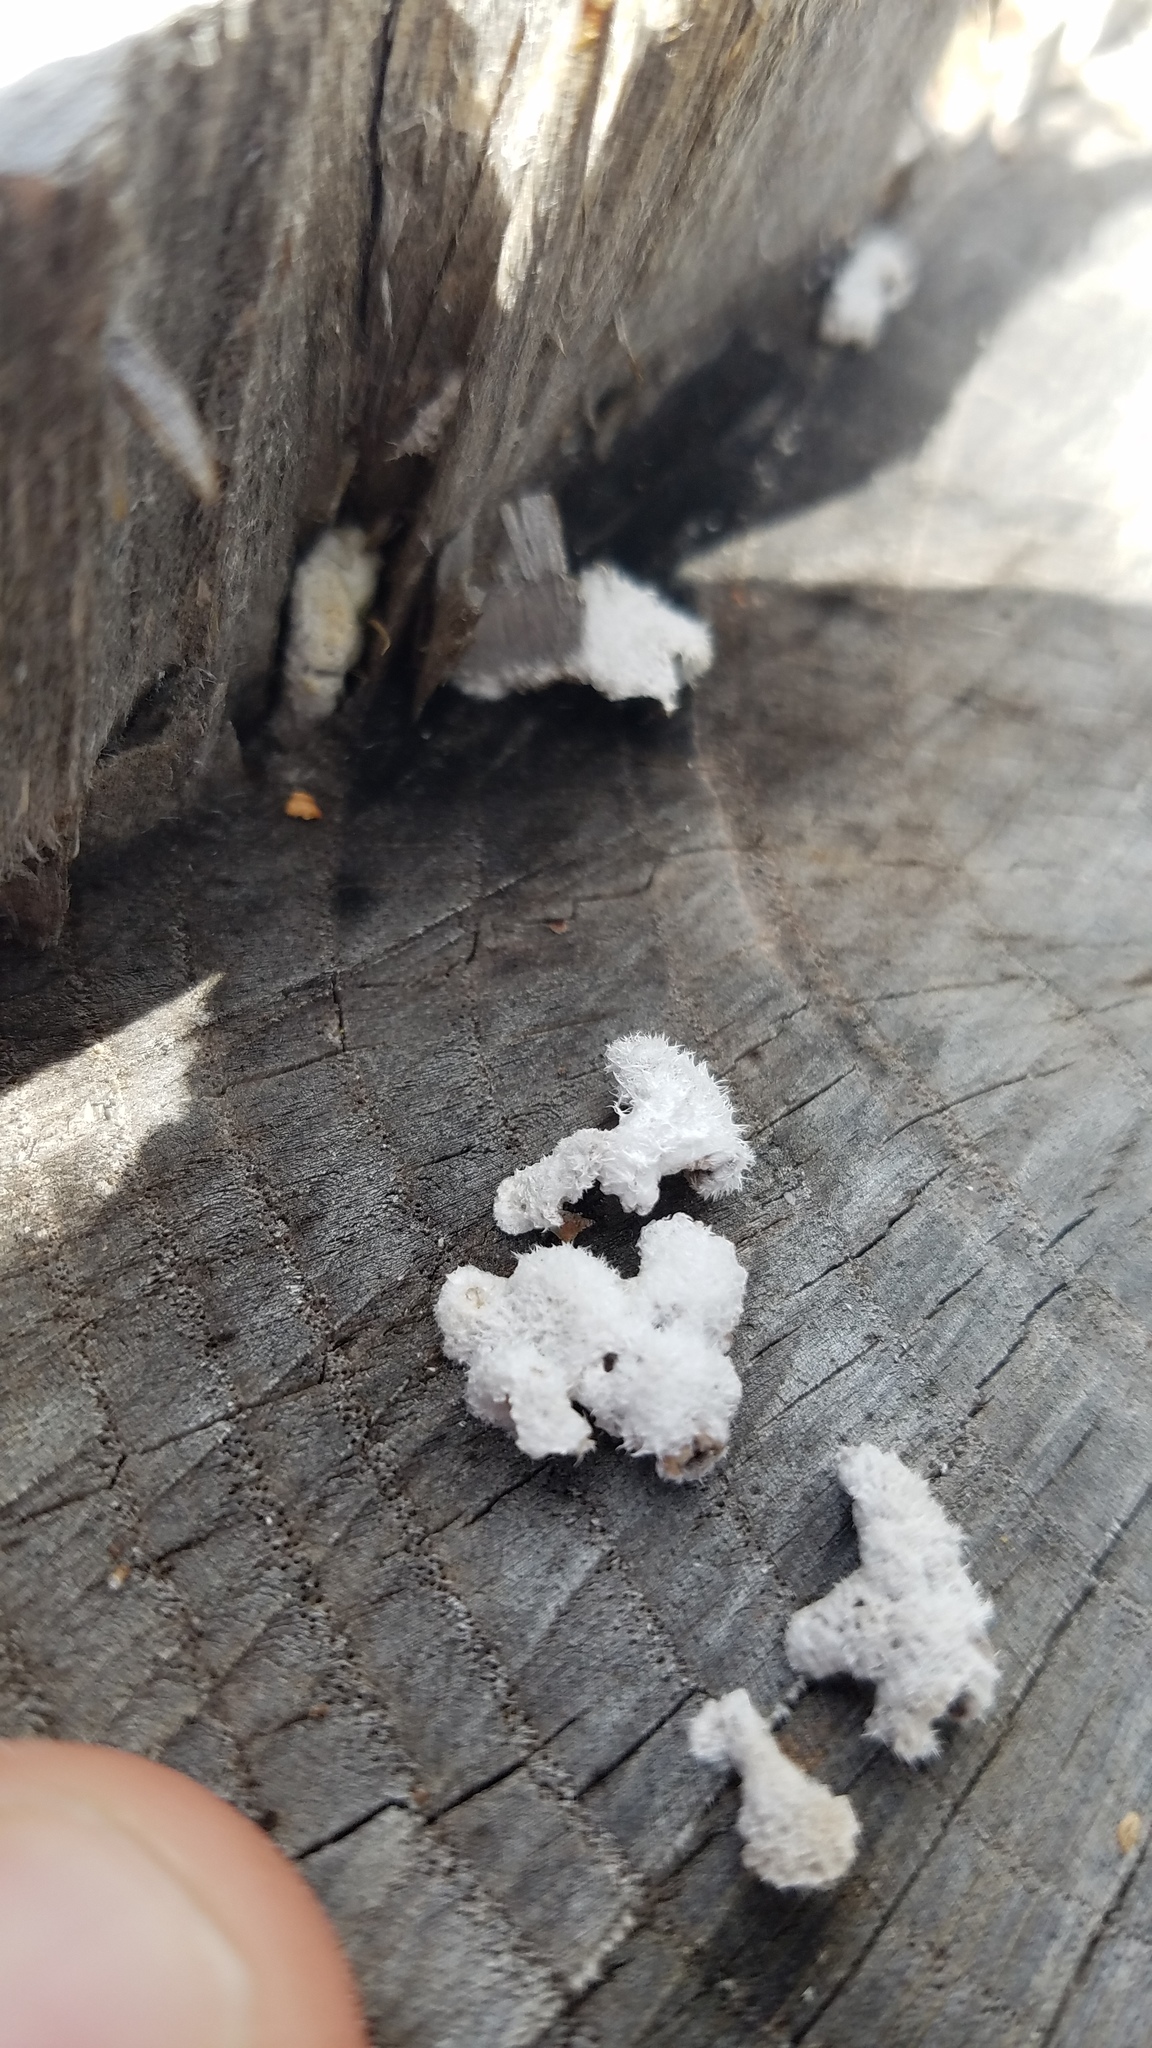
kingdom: Fungi
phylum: Basidiomycota
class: Agaricomycetes
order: Agaricales
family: Schizophyllaceae
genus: Schizophyllum
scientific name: Schizophyllum commune
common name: Common porecrust
